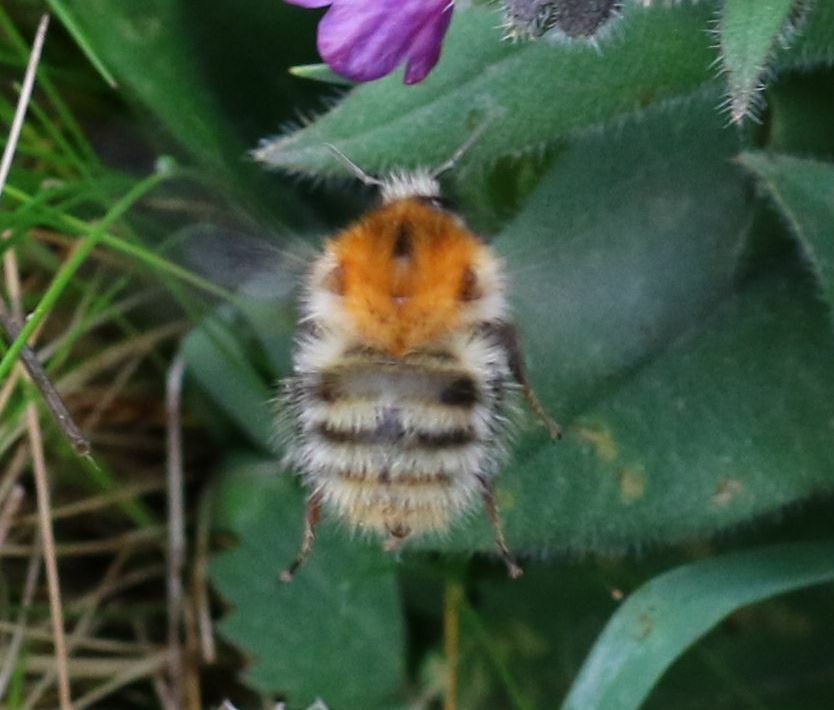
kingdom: Animalia
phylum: Arthropoda
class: Insecta
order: Hymenoptera
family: Apidae
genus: Bombus
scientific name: Bombus pascuorum
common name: Common carder bee
